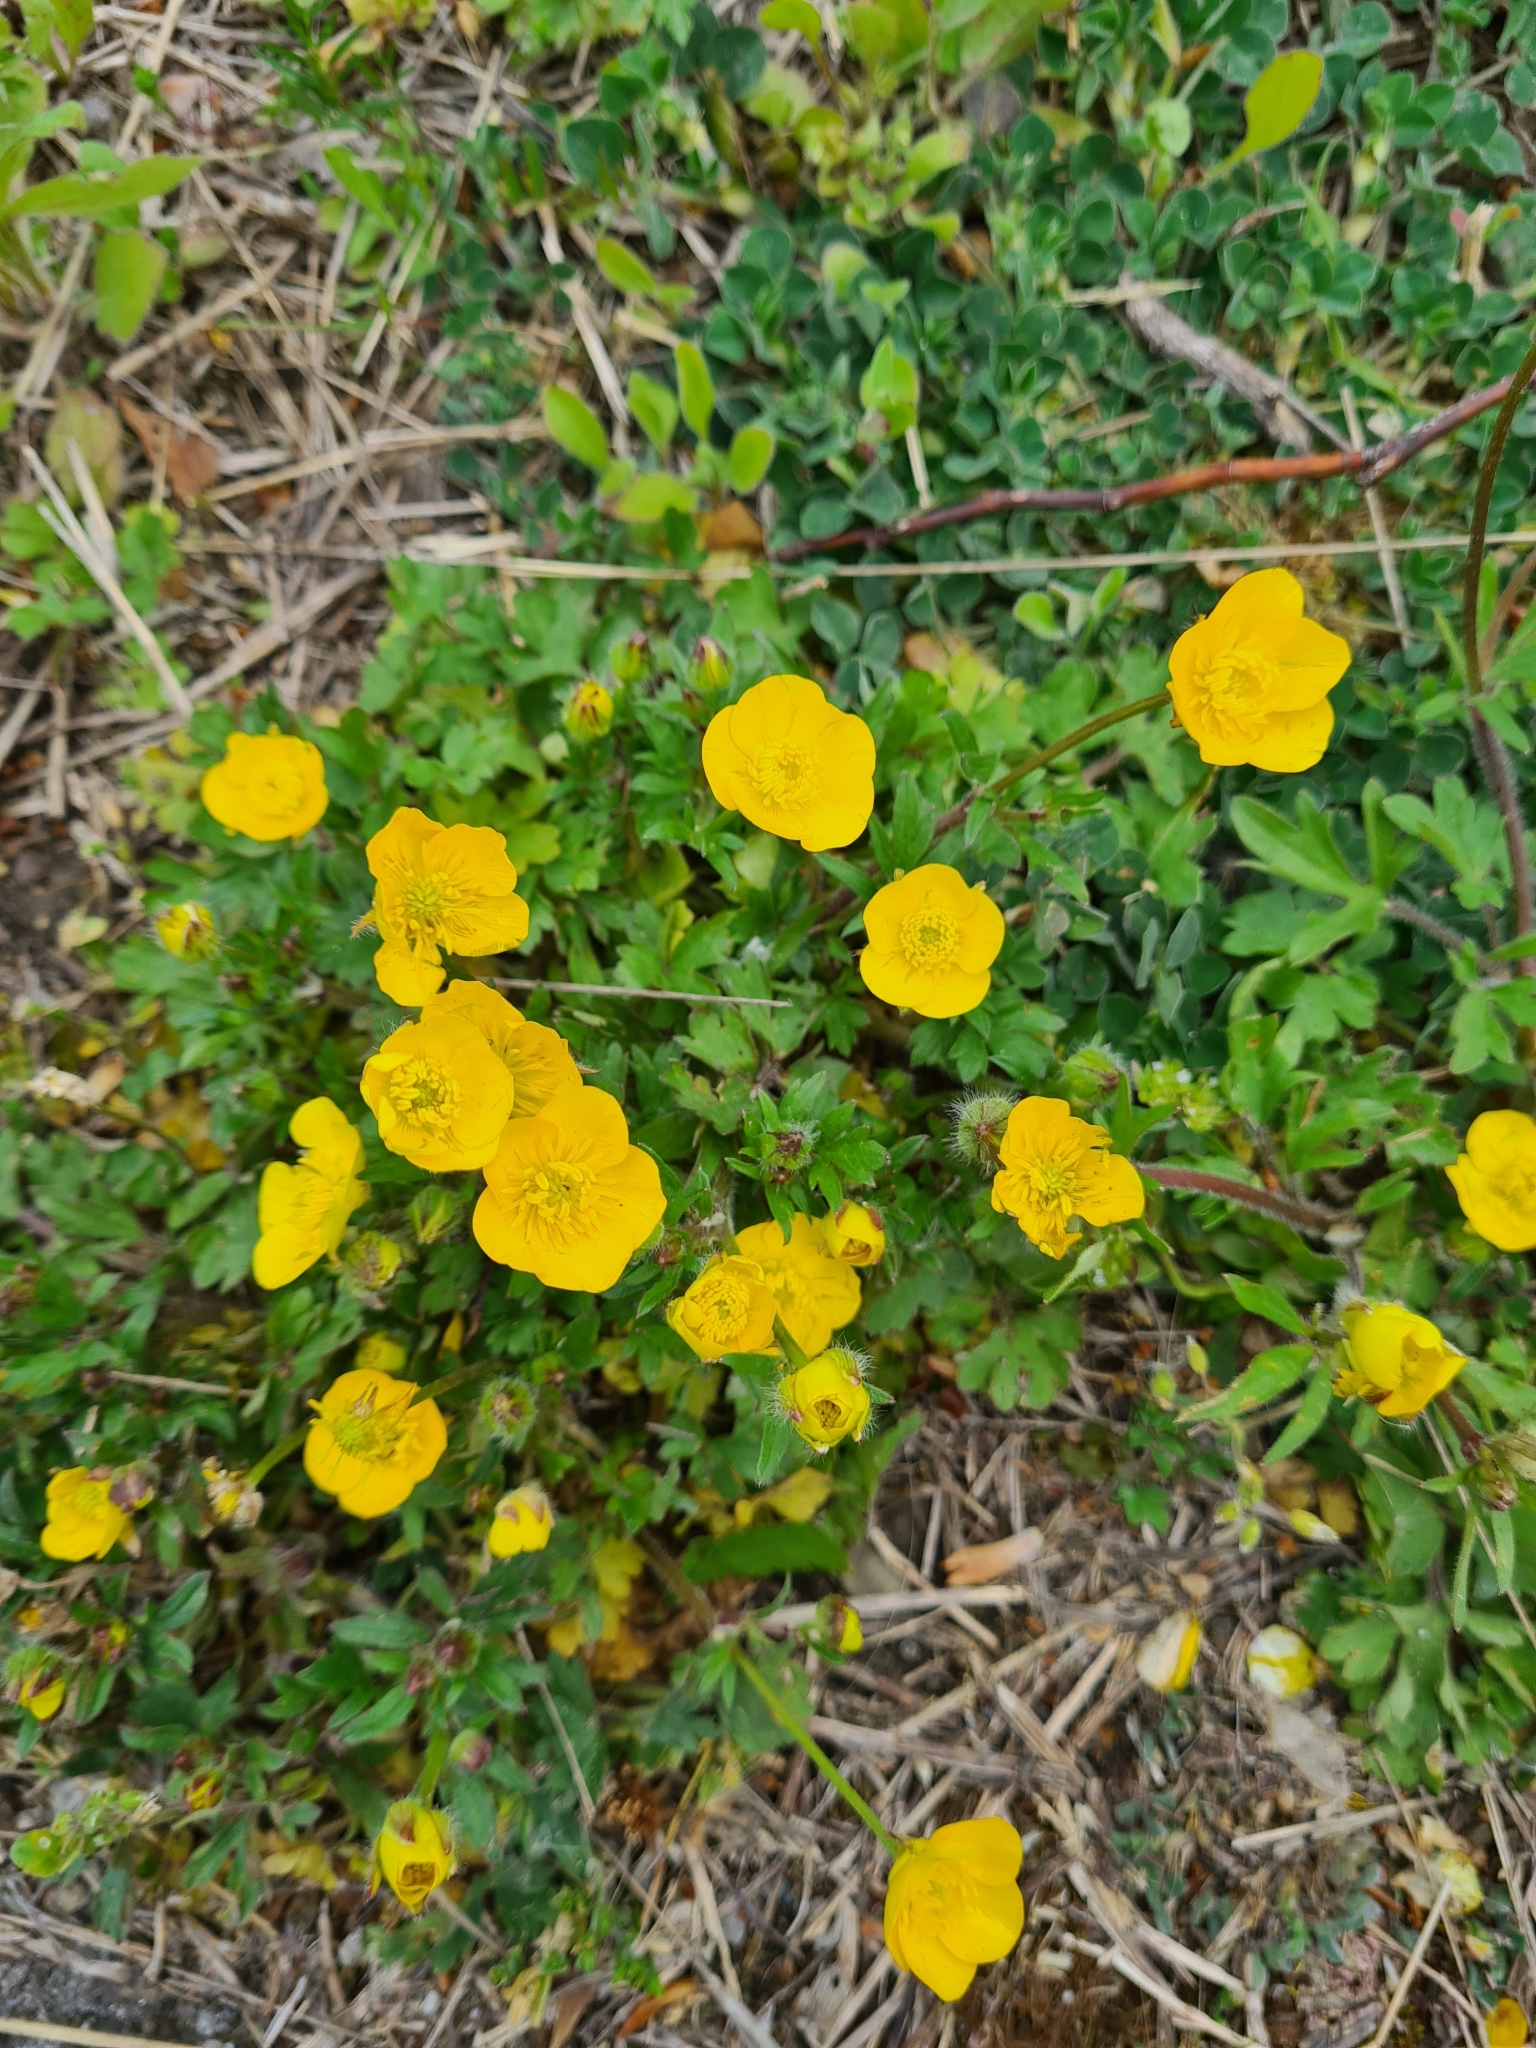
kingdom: Plantae
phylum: Tracheophyta
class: Magnoliopsida
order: Ranunculales
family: Ranunculaceae
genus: Ranunculus
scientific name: Ranunculus bulbosus
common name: Bulbous buttercup
